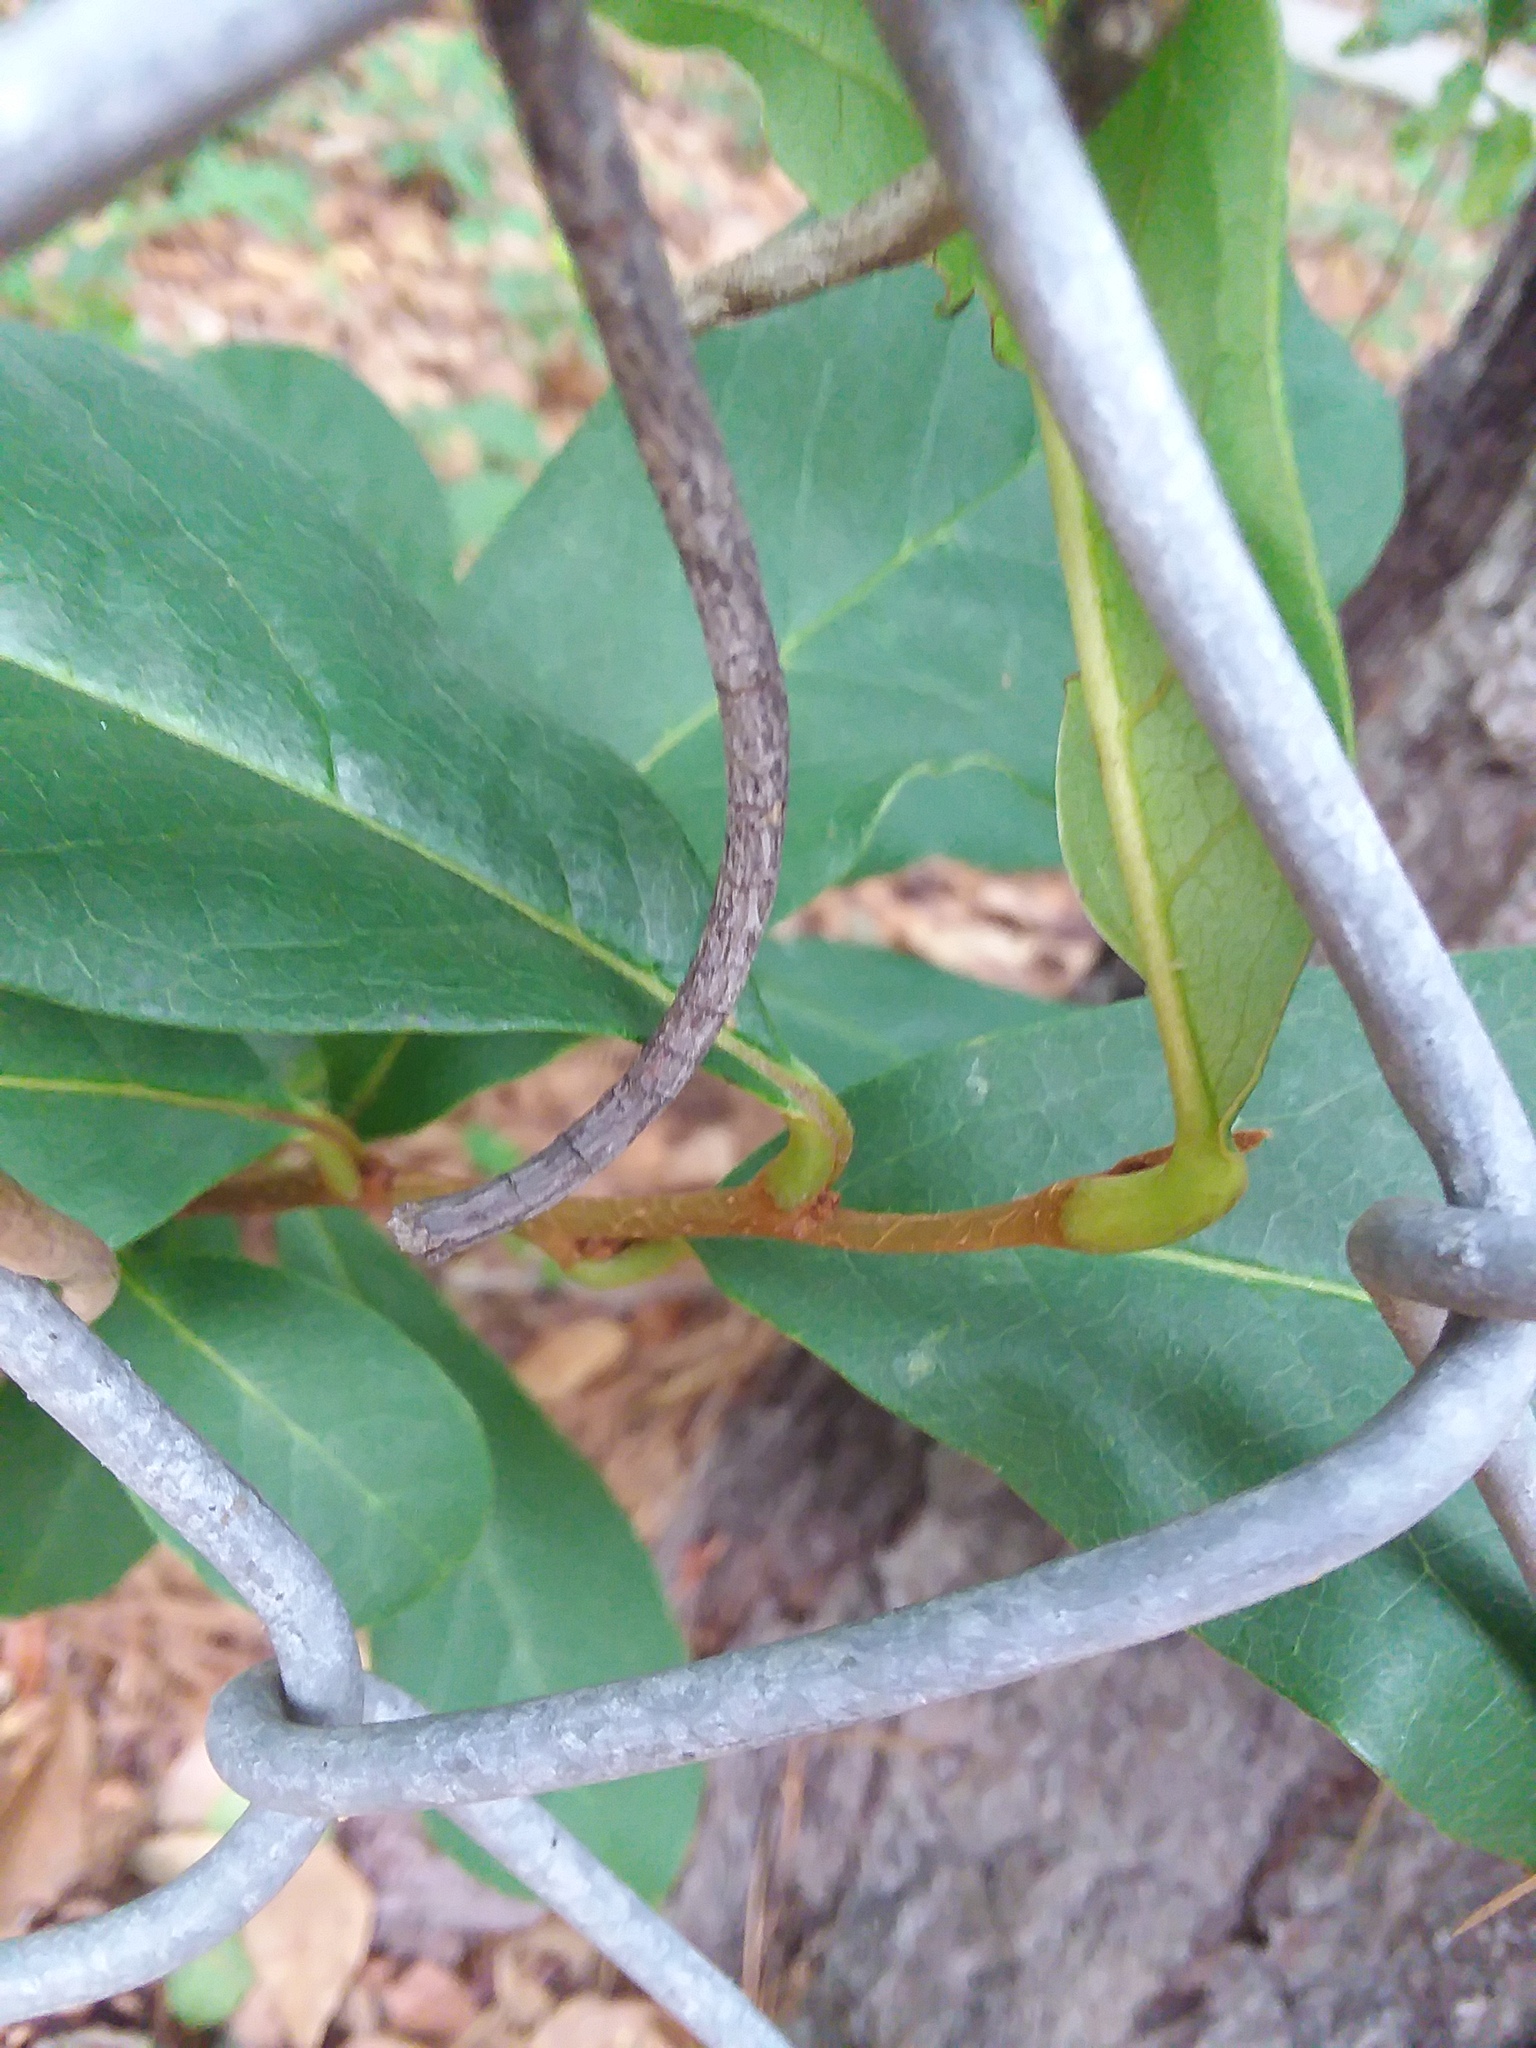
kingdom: Plantae
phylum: Tracheophyta
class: Magnoliopsida
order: Magnoliales
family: Annonaceae
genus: Asimina
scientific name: Asimina parviflora
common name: Dwarf pawpaw
